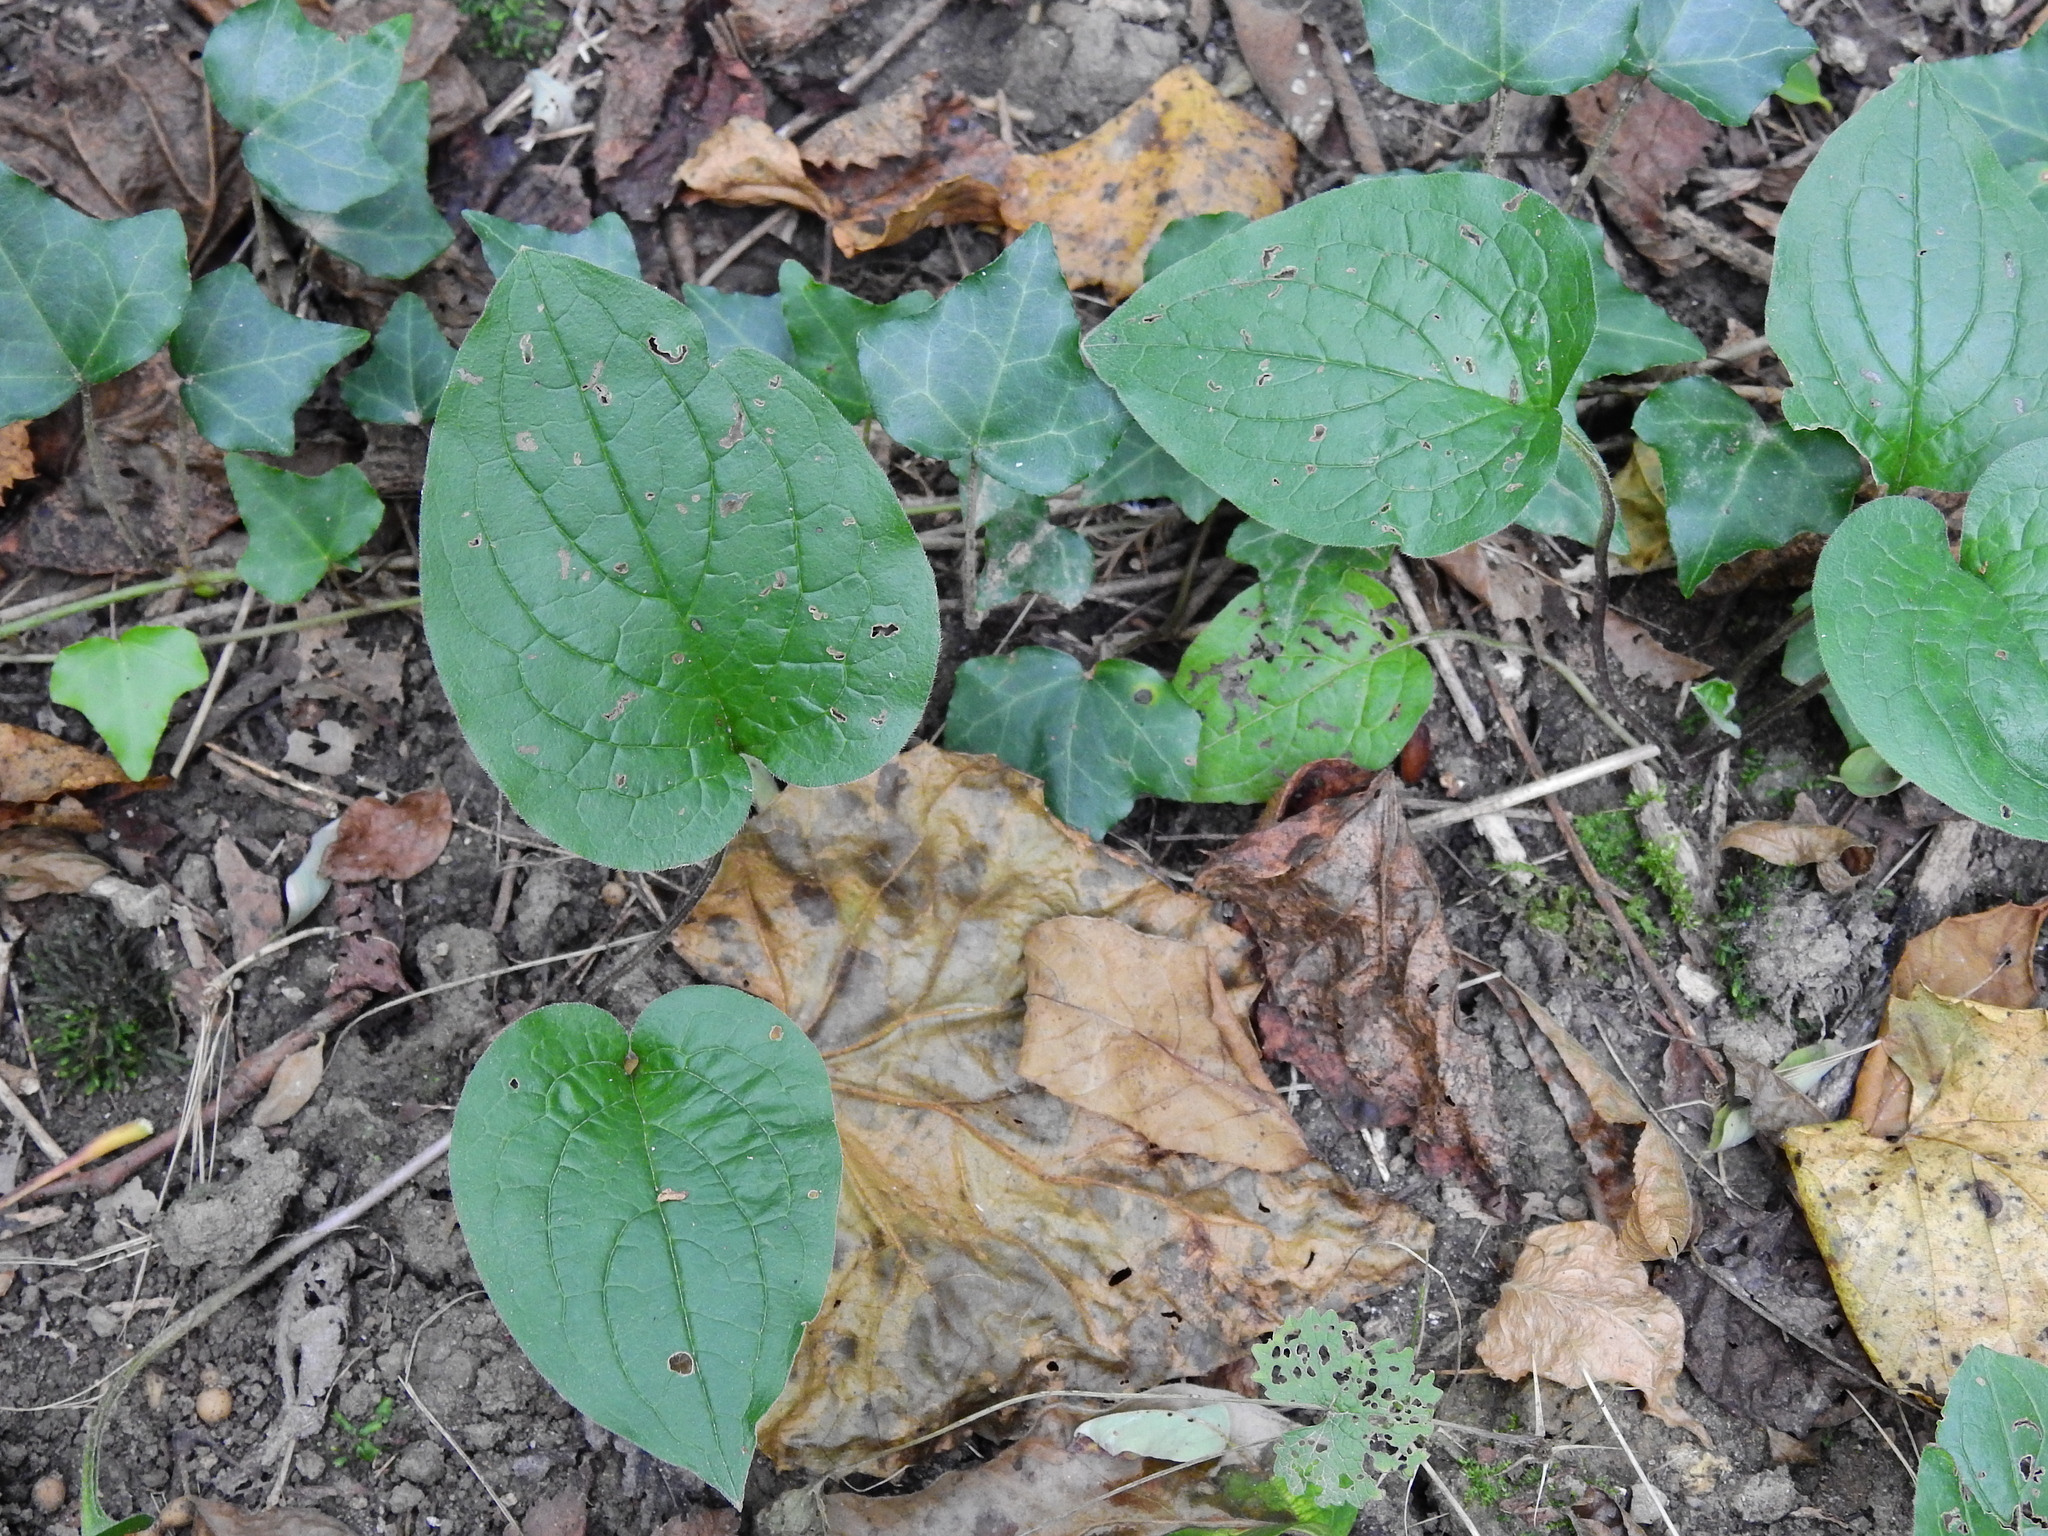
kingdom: Plantae
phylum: Tracheophyta
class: Magnoliopsida
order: Boraginales
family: Boraginaceae
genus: Hackelia
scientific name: Hackelia virginiana
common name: Beggar's-lice
